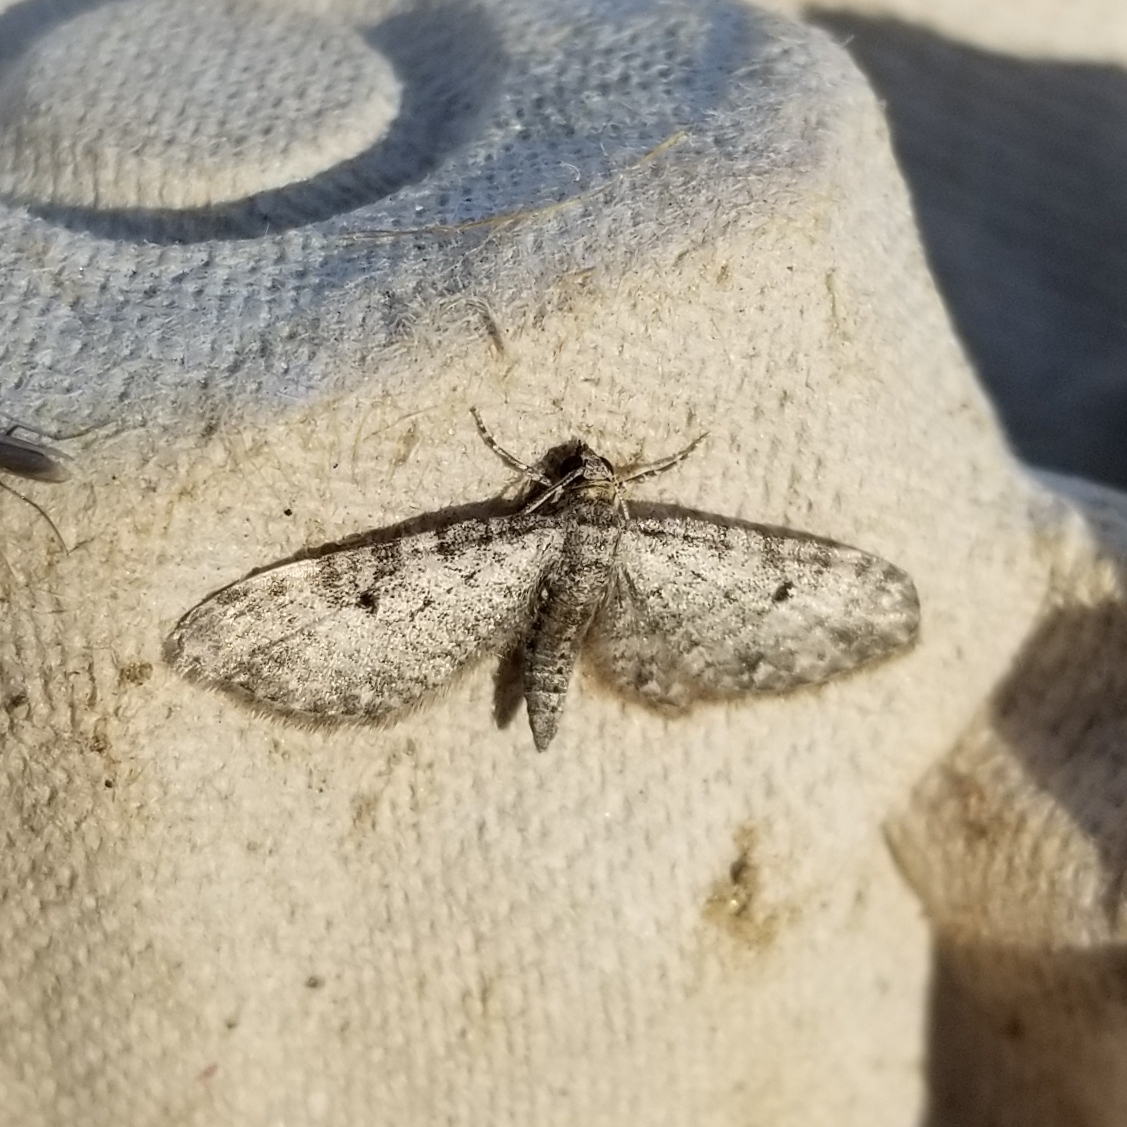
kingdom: Animalia
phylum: Arthropoda
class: Insecta
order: Lepidoptera
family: Geometridae
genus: Eupithecia
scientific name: Eupithecia miserulata
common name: Common eupithecia
